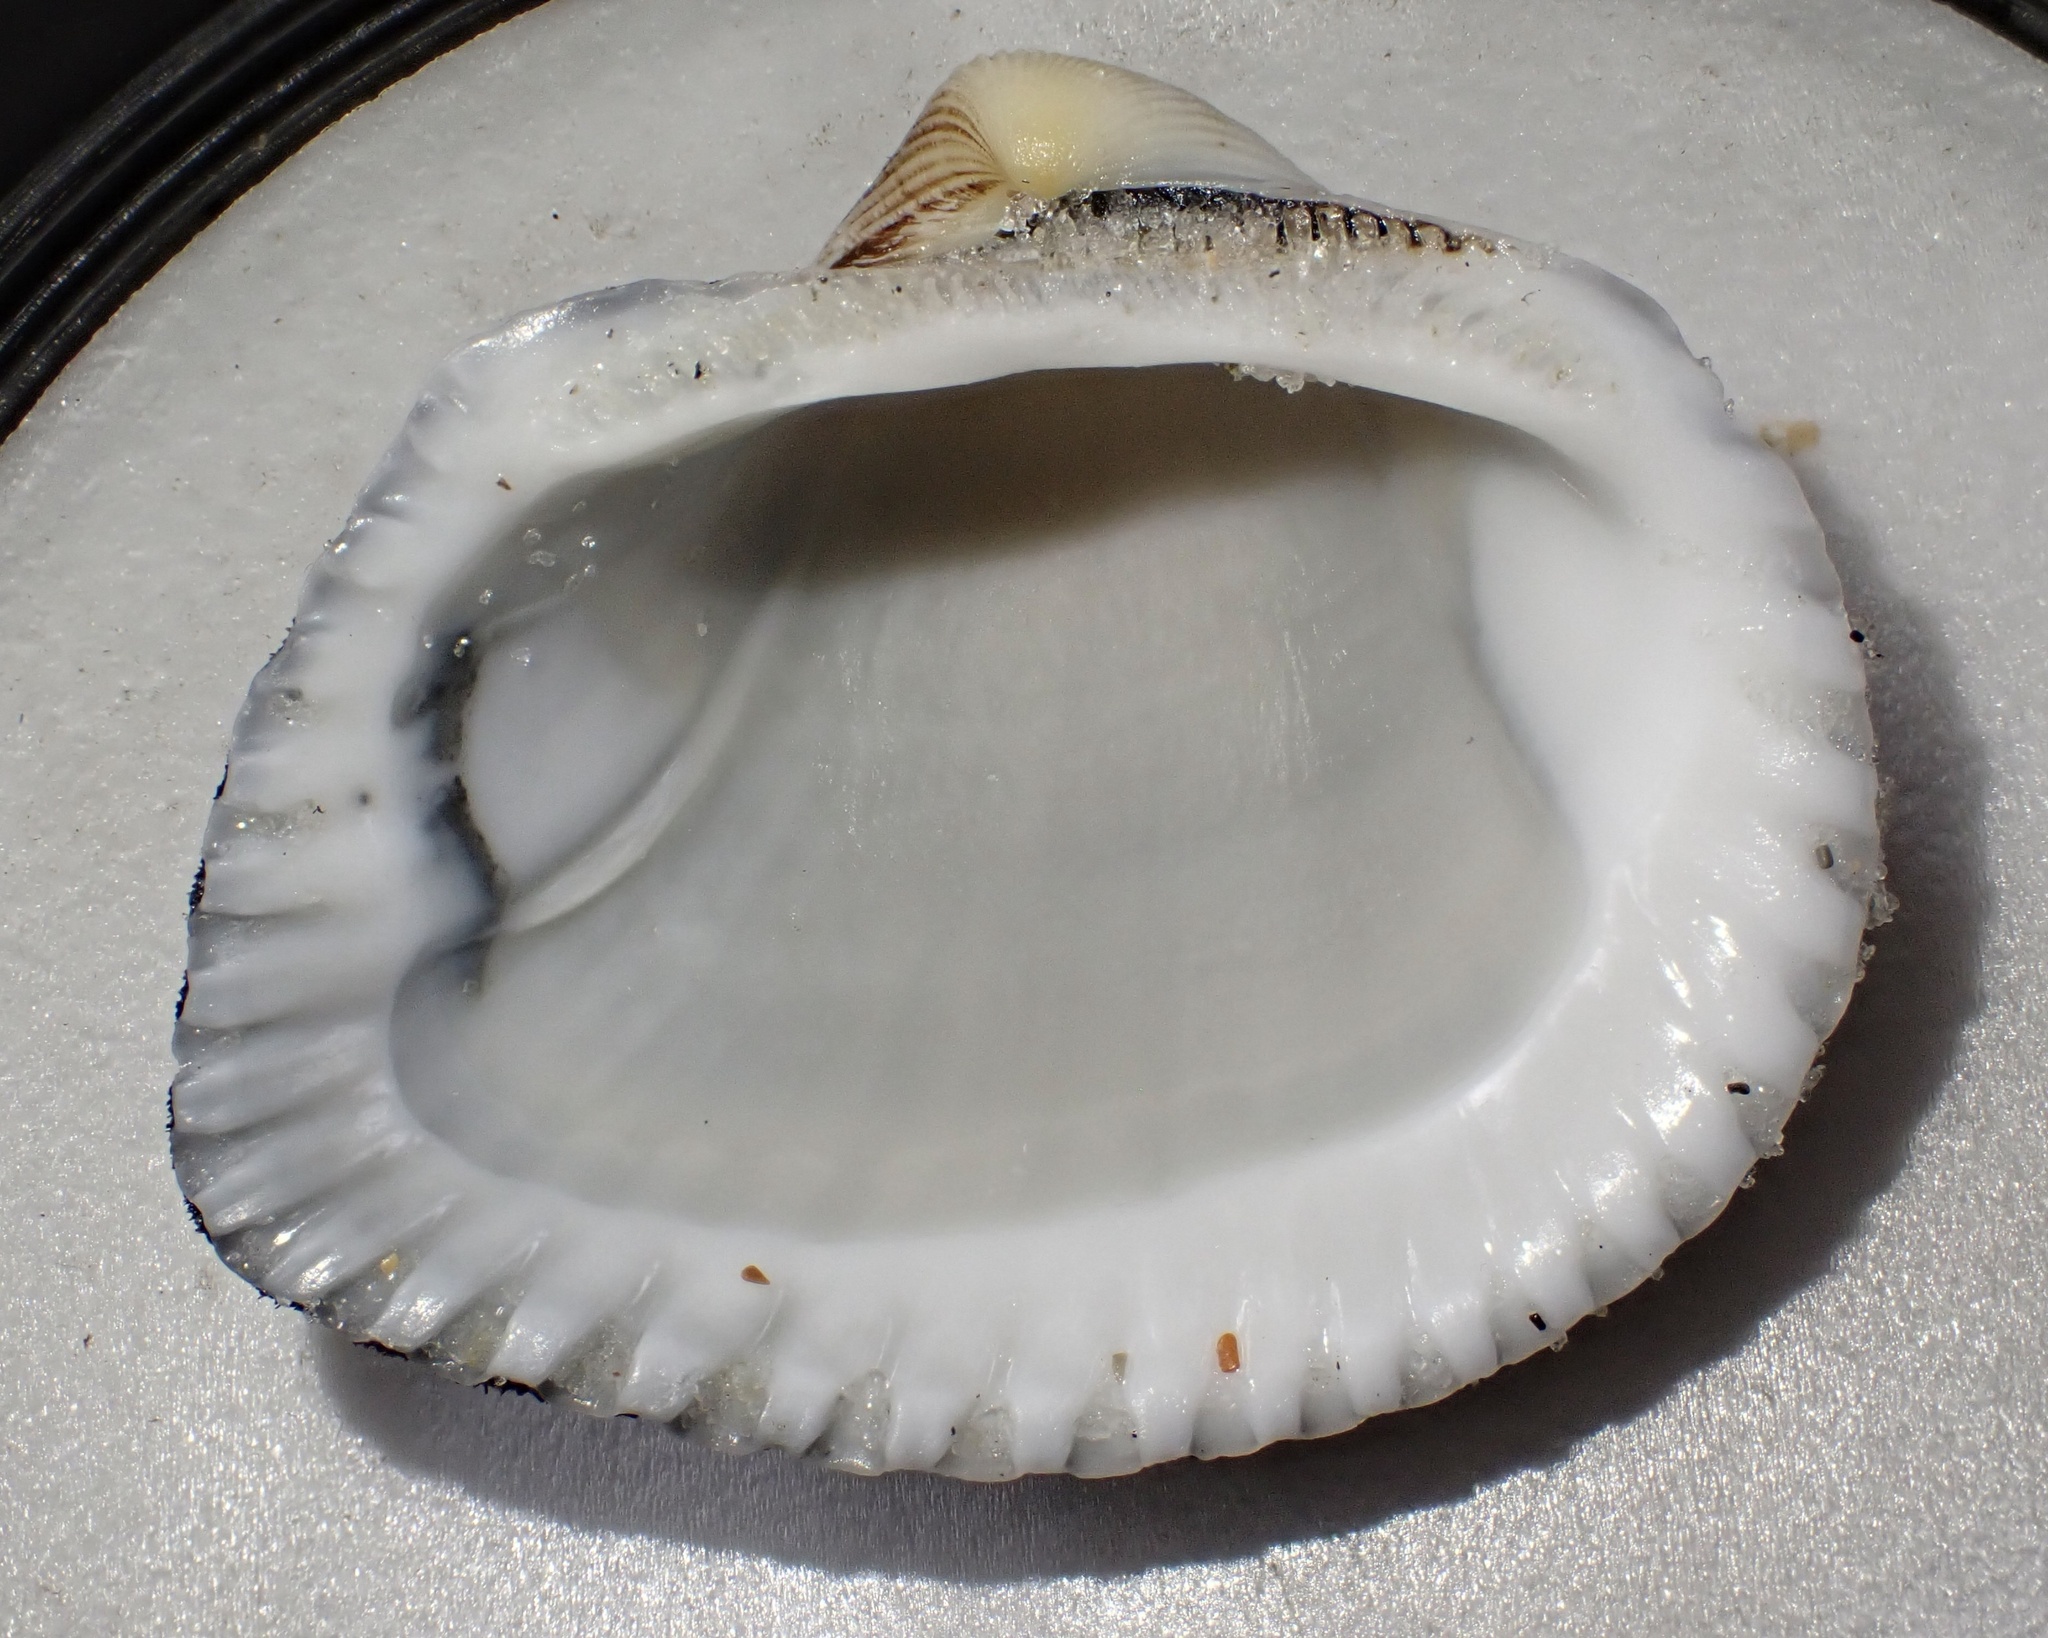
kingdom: Animalia
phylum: Mollusca
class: Bivalvia
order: Arcida
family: Noetiidae
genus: Noetia
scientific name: Noetia ponderosa
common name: Ponderous ark
